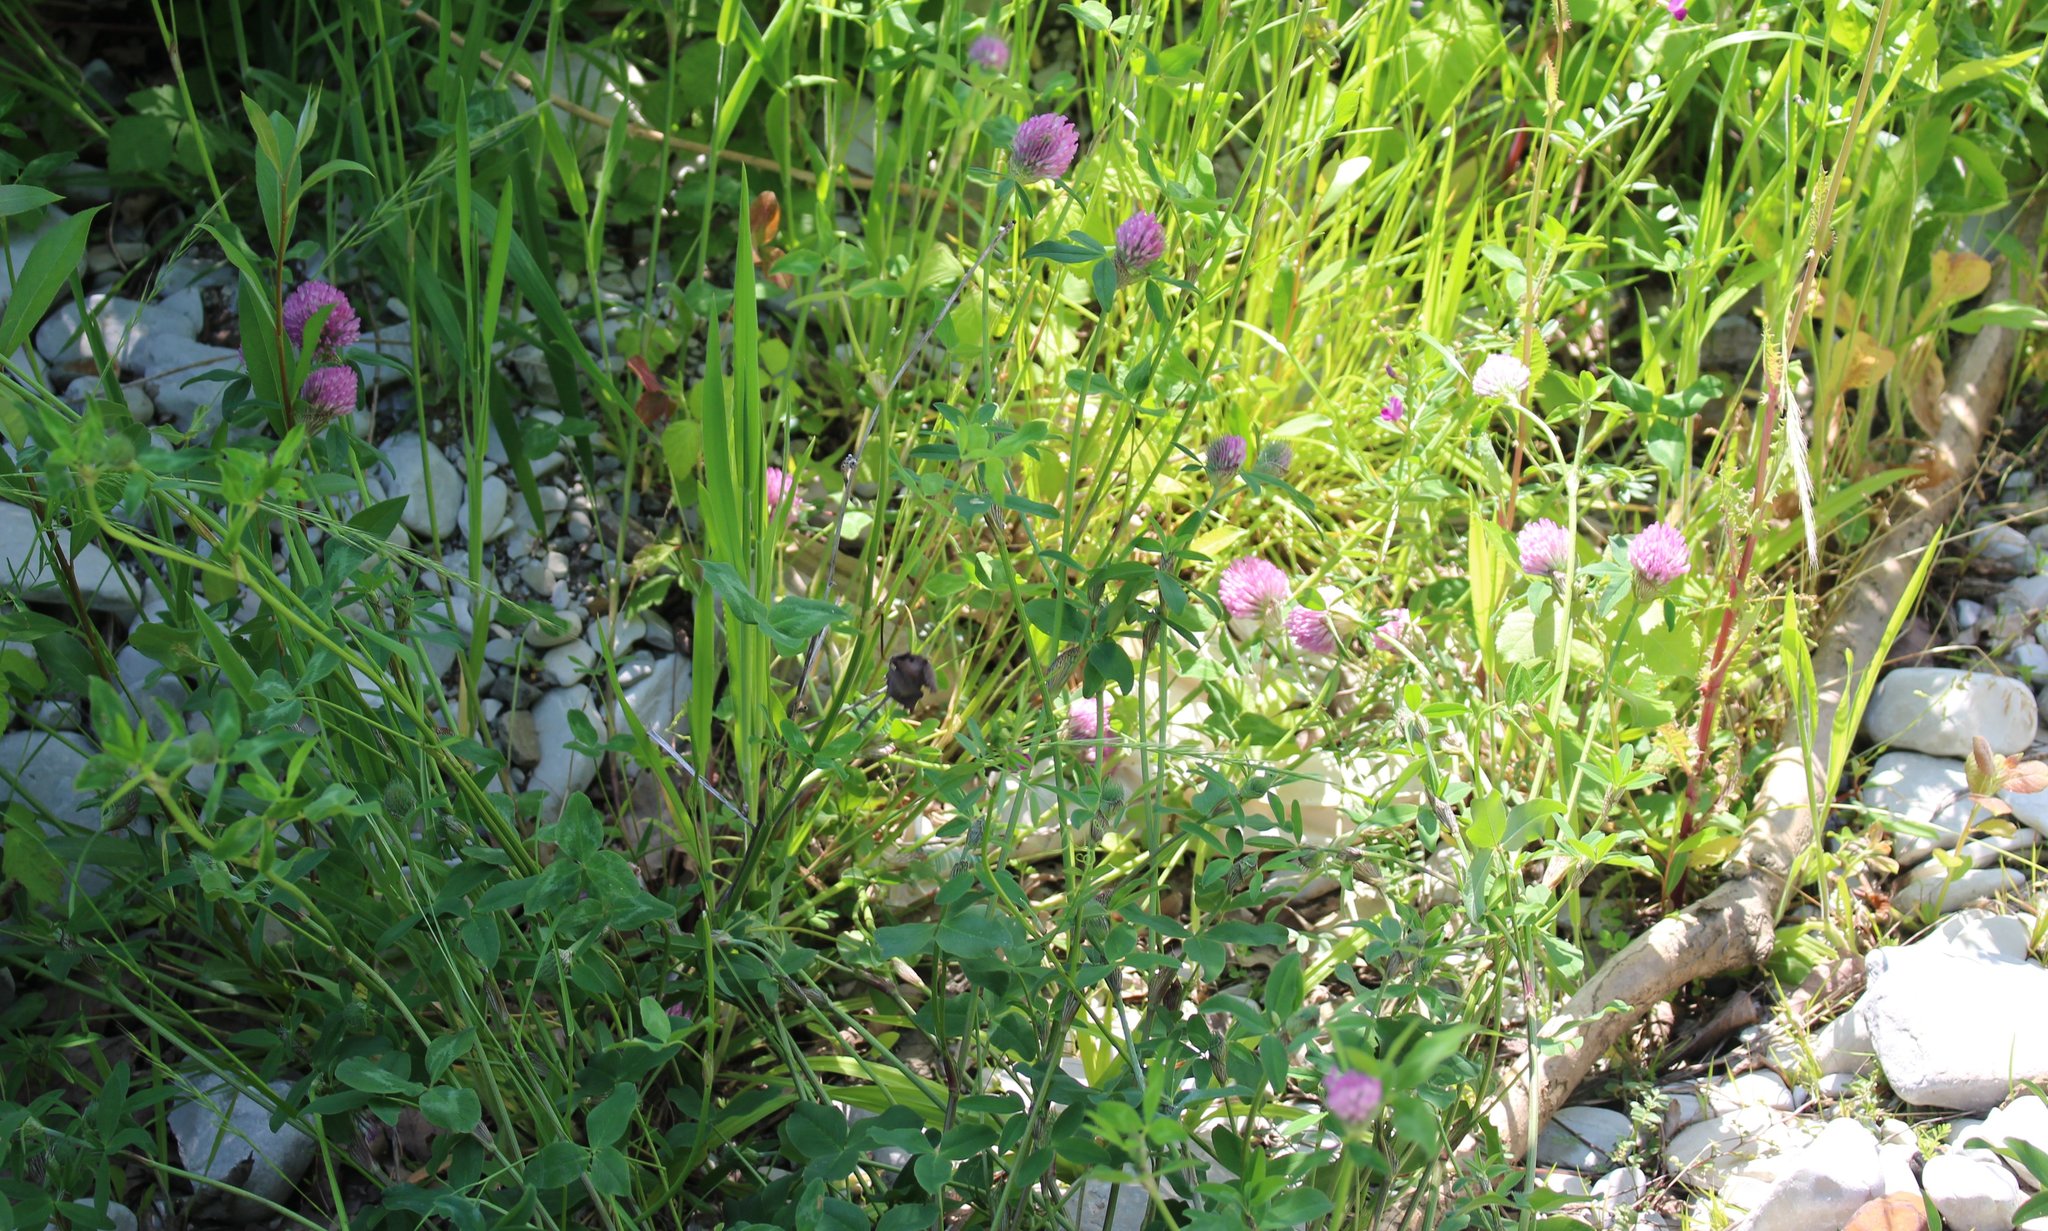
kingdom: Plantae
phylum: Tracheophyta
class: Magnoliopsida
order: Fabales
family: Fabaceae
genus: Trifolium
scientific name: Trifolium pratense
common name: Red clover
